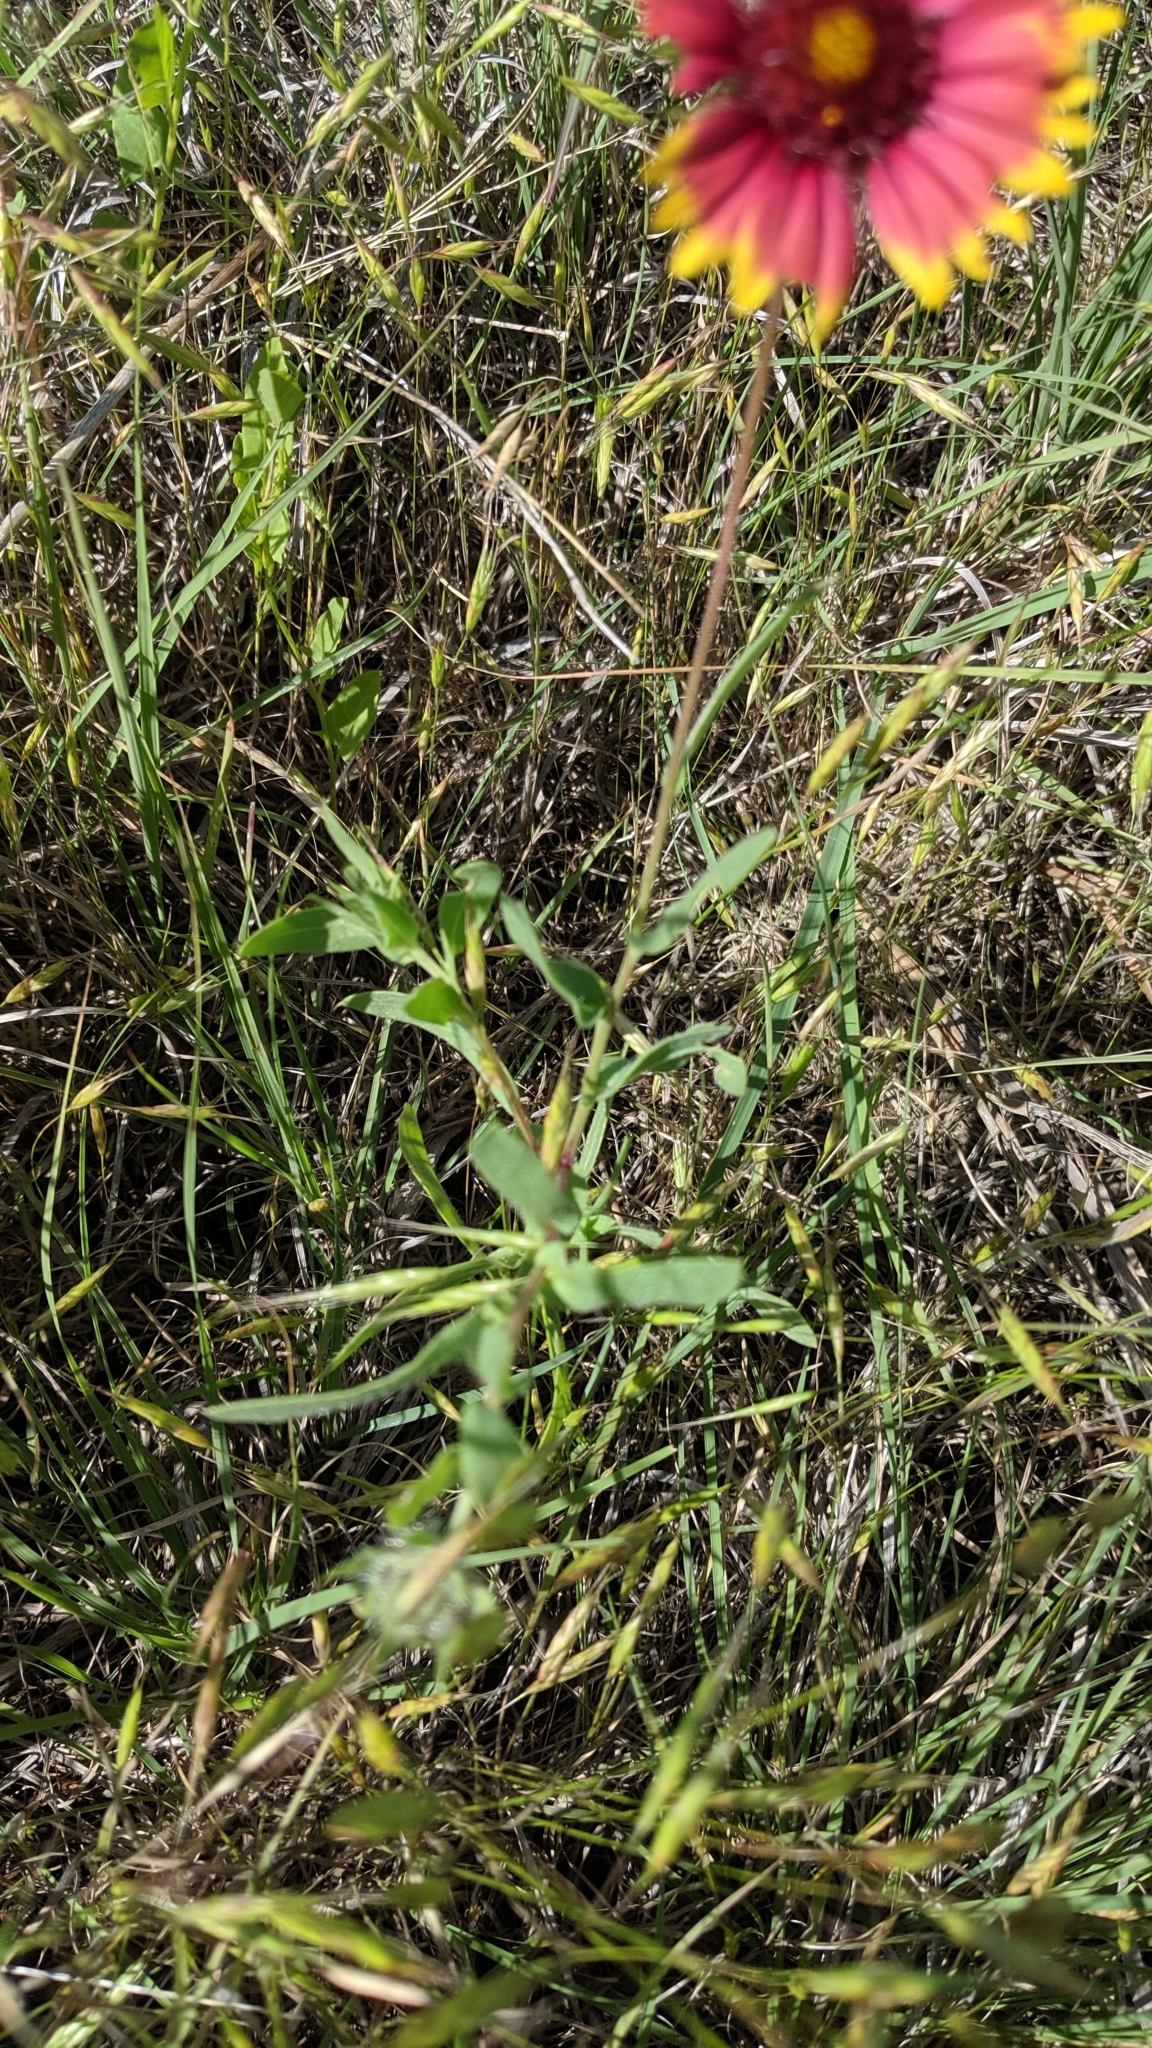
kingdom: Plantae
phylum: Tracheophyta
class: Magnoliopsida
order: Asterales
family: Asteraceae
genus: Gaillardia
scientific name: Gaillardia pulchella
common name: Firewheel
